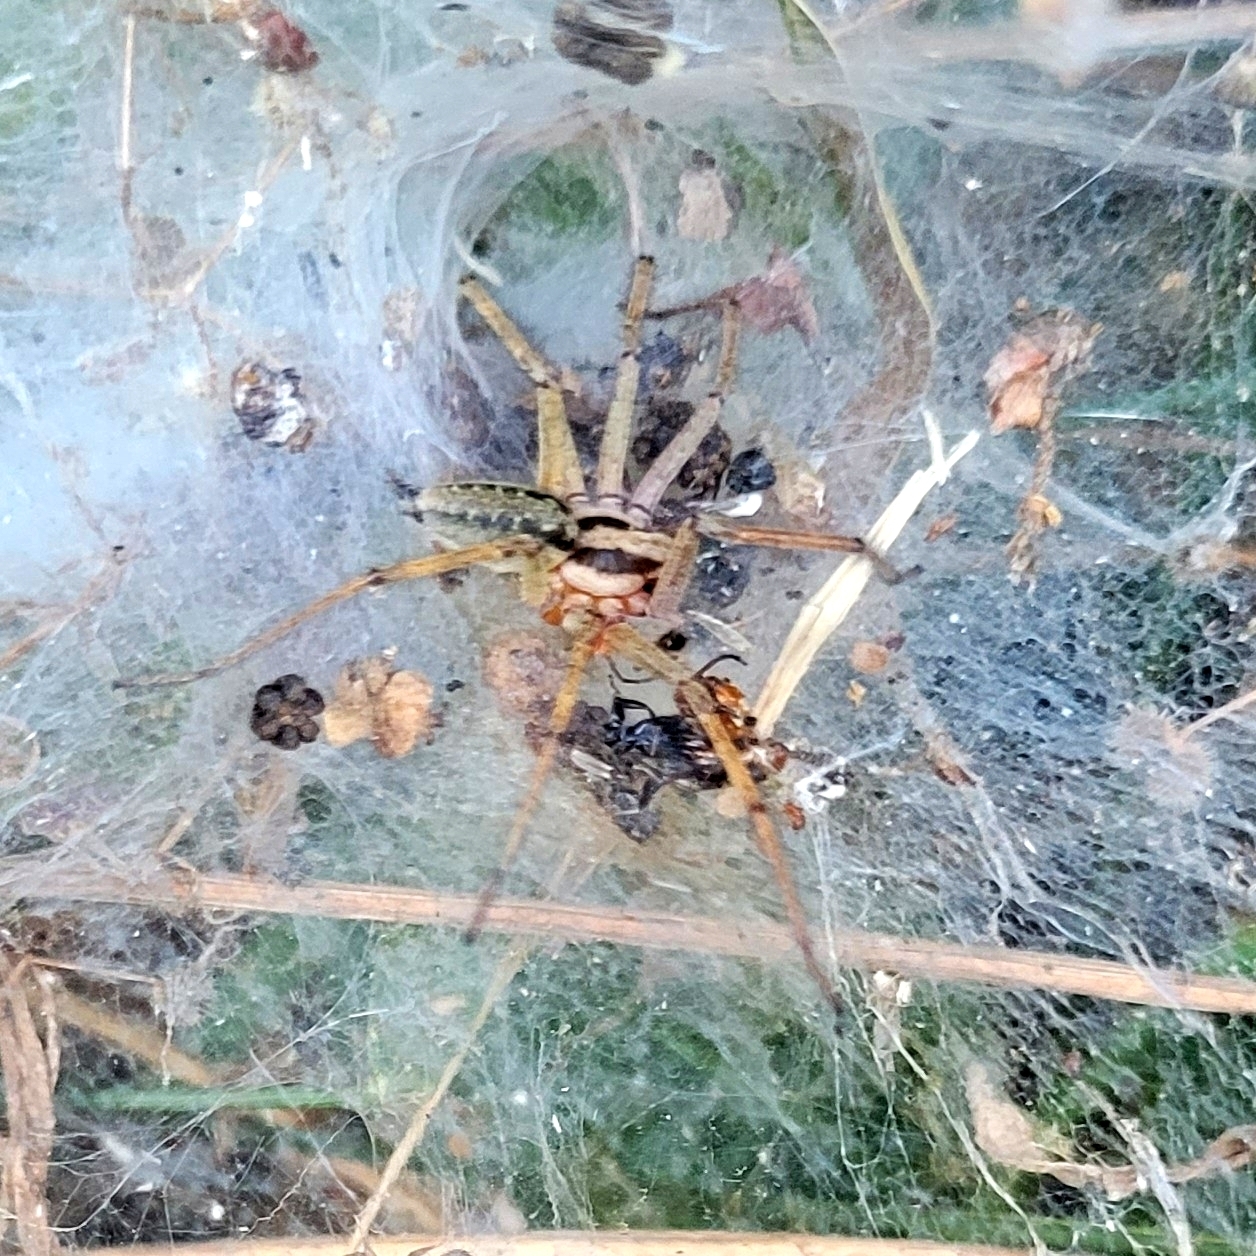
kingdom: Animalia
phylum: Arthropoda
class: Arachnida
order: Araneae
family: Agelenidae
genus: Agelena
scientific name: Agelena labyrinthica
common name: Labyrinth spider
